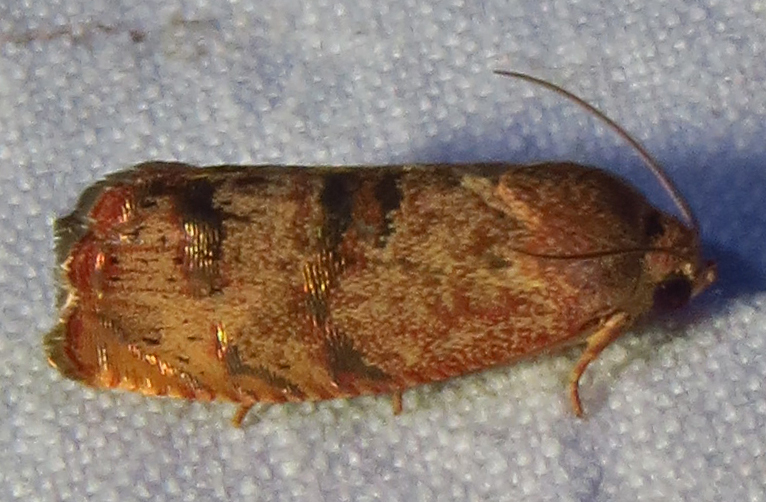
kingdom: Animalia
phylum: Arthropoda
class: Insecta
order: Lepidoptera
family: Tortricidae
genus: Cydia
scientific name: Cydia latiferreana
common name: Filbertworm moth
